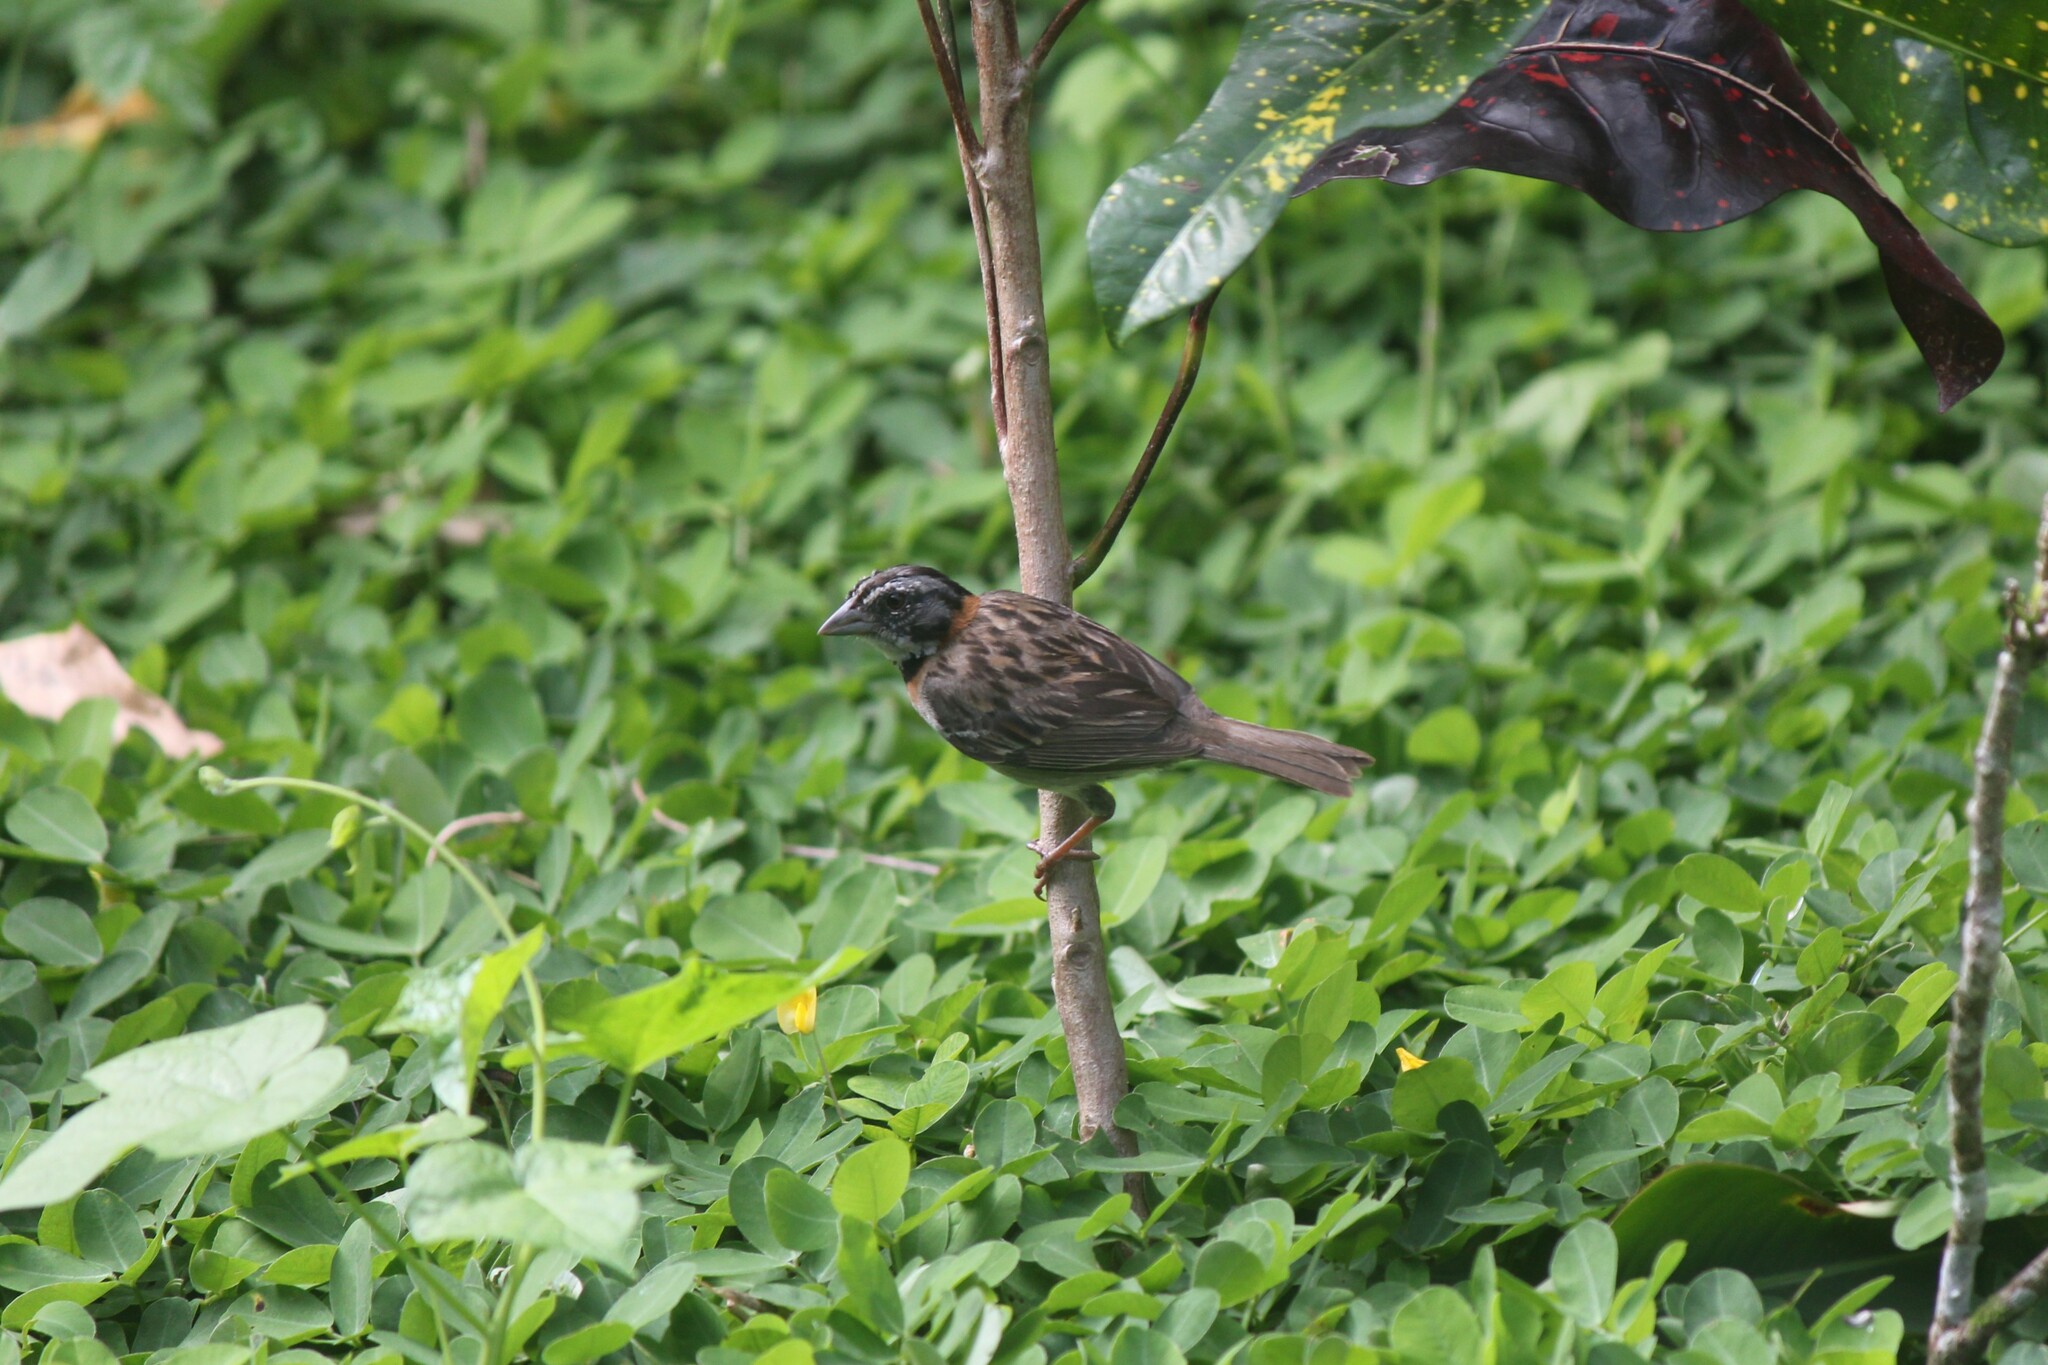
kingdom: Animalia
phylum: Chordata
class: Aves
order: Passeriformes
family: Passerellidae
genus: Zonotrichia
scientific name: Zonotrichia capensis
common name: Rufous-collared sparrow
